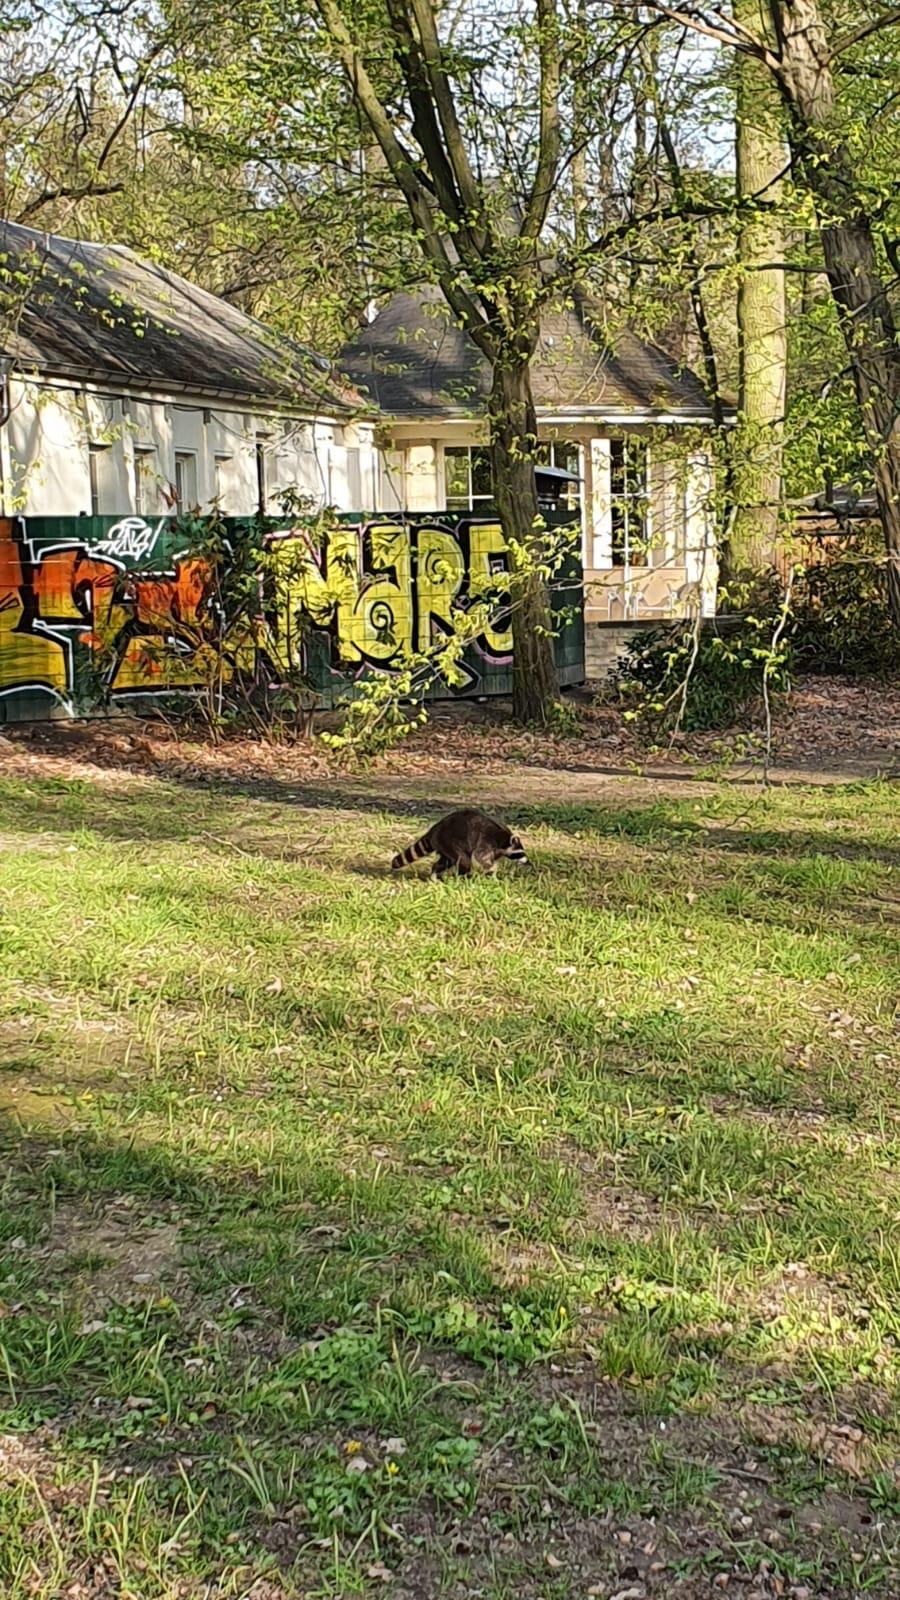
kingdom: Animalia
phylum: Chordata
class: Mammalia
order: Carnivora
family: Procyonidae
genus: Procyon
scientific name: Procyon lotor
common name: Raccoon
